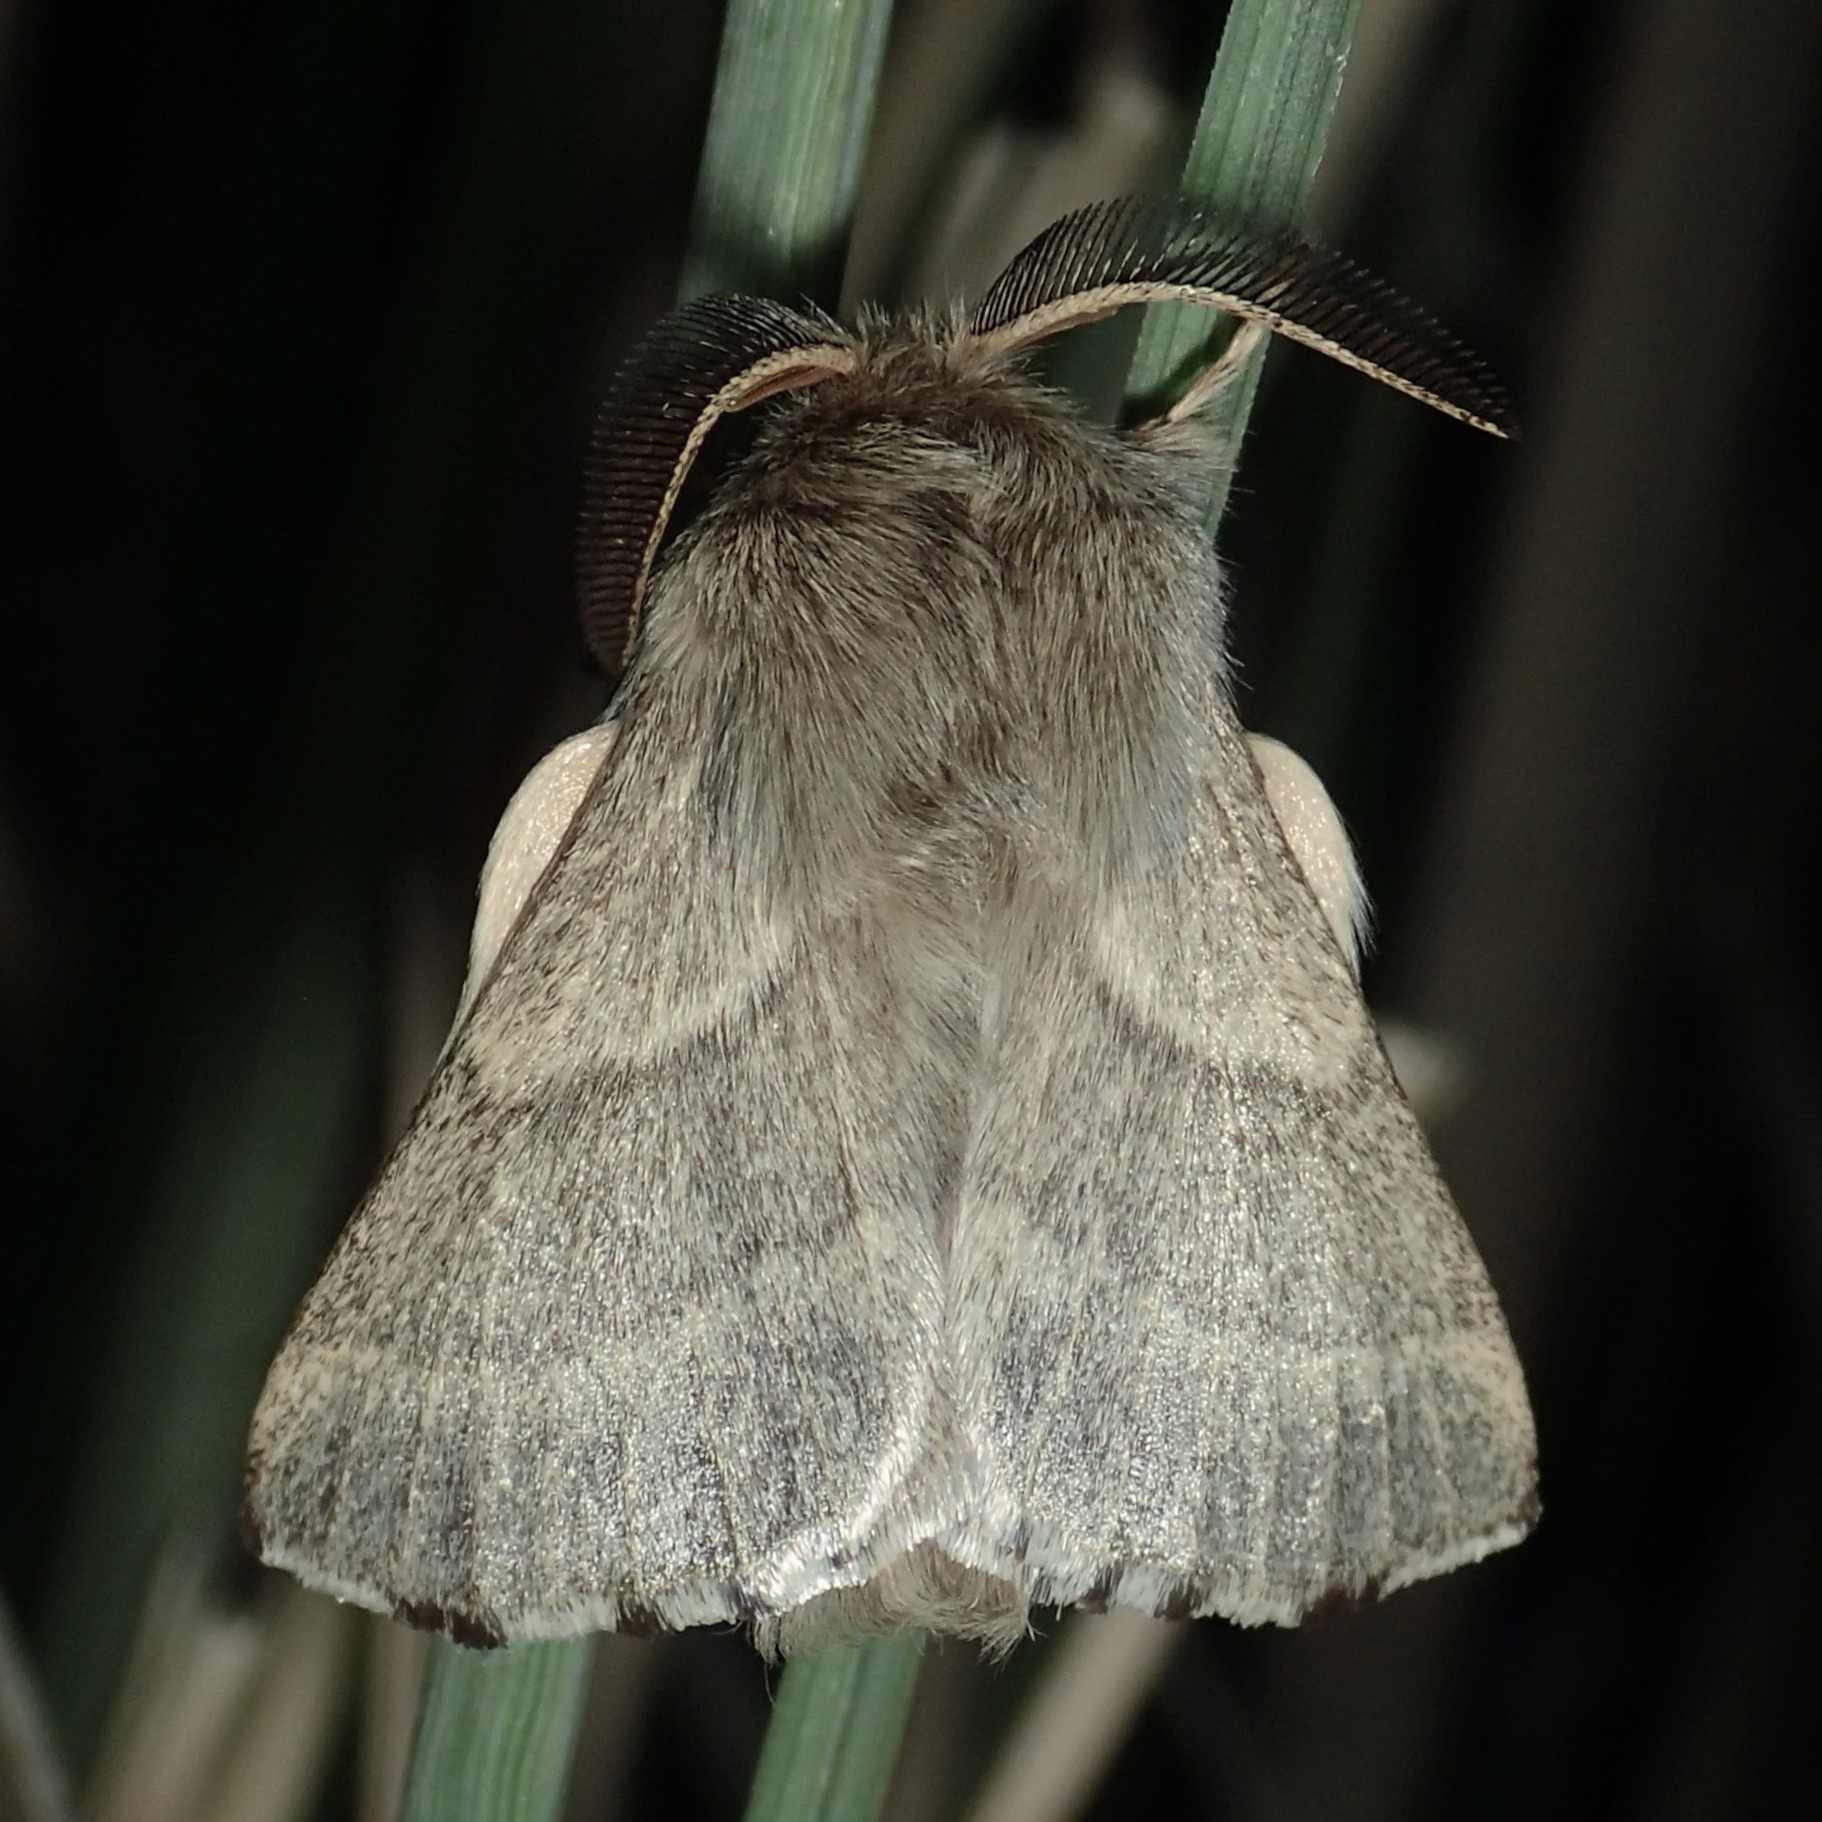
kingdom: Animalia
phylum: Arthropoda
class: Insecta
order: Lepidoptera
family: Lasiocampidae
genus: Malacosoma
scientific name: Malacosoma incurva
